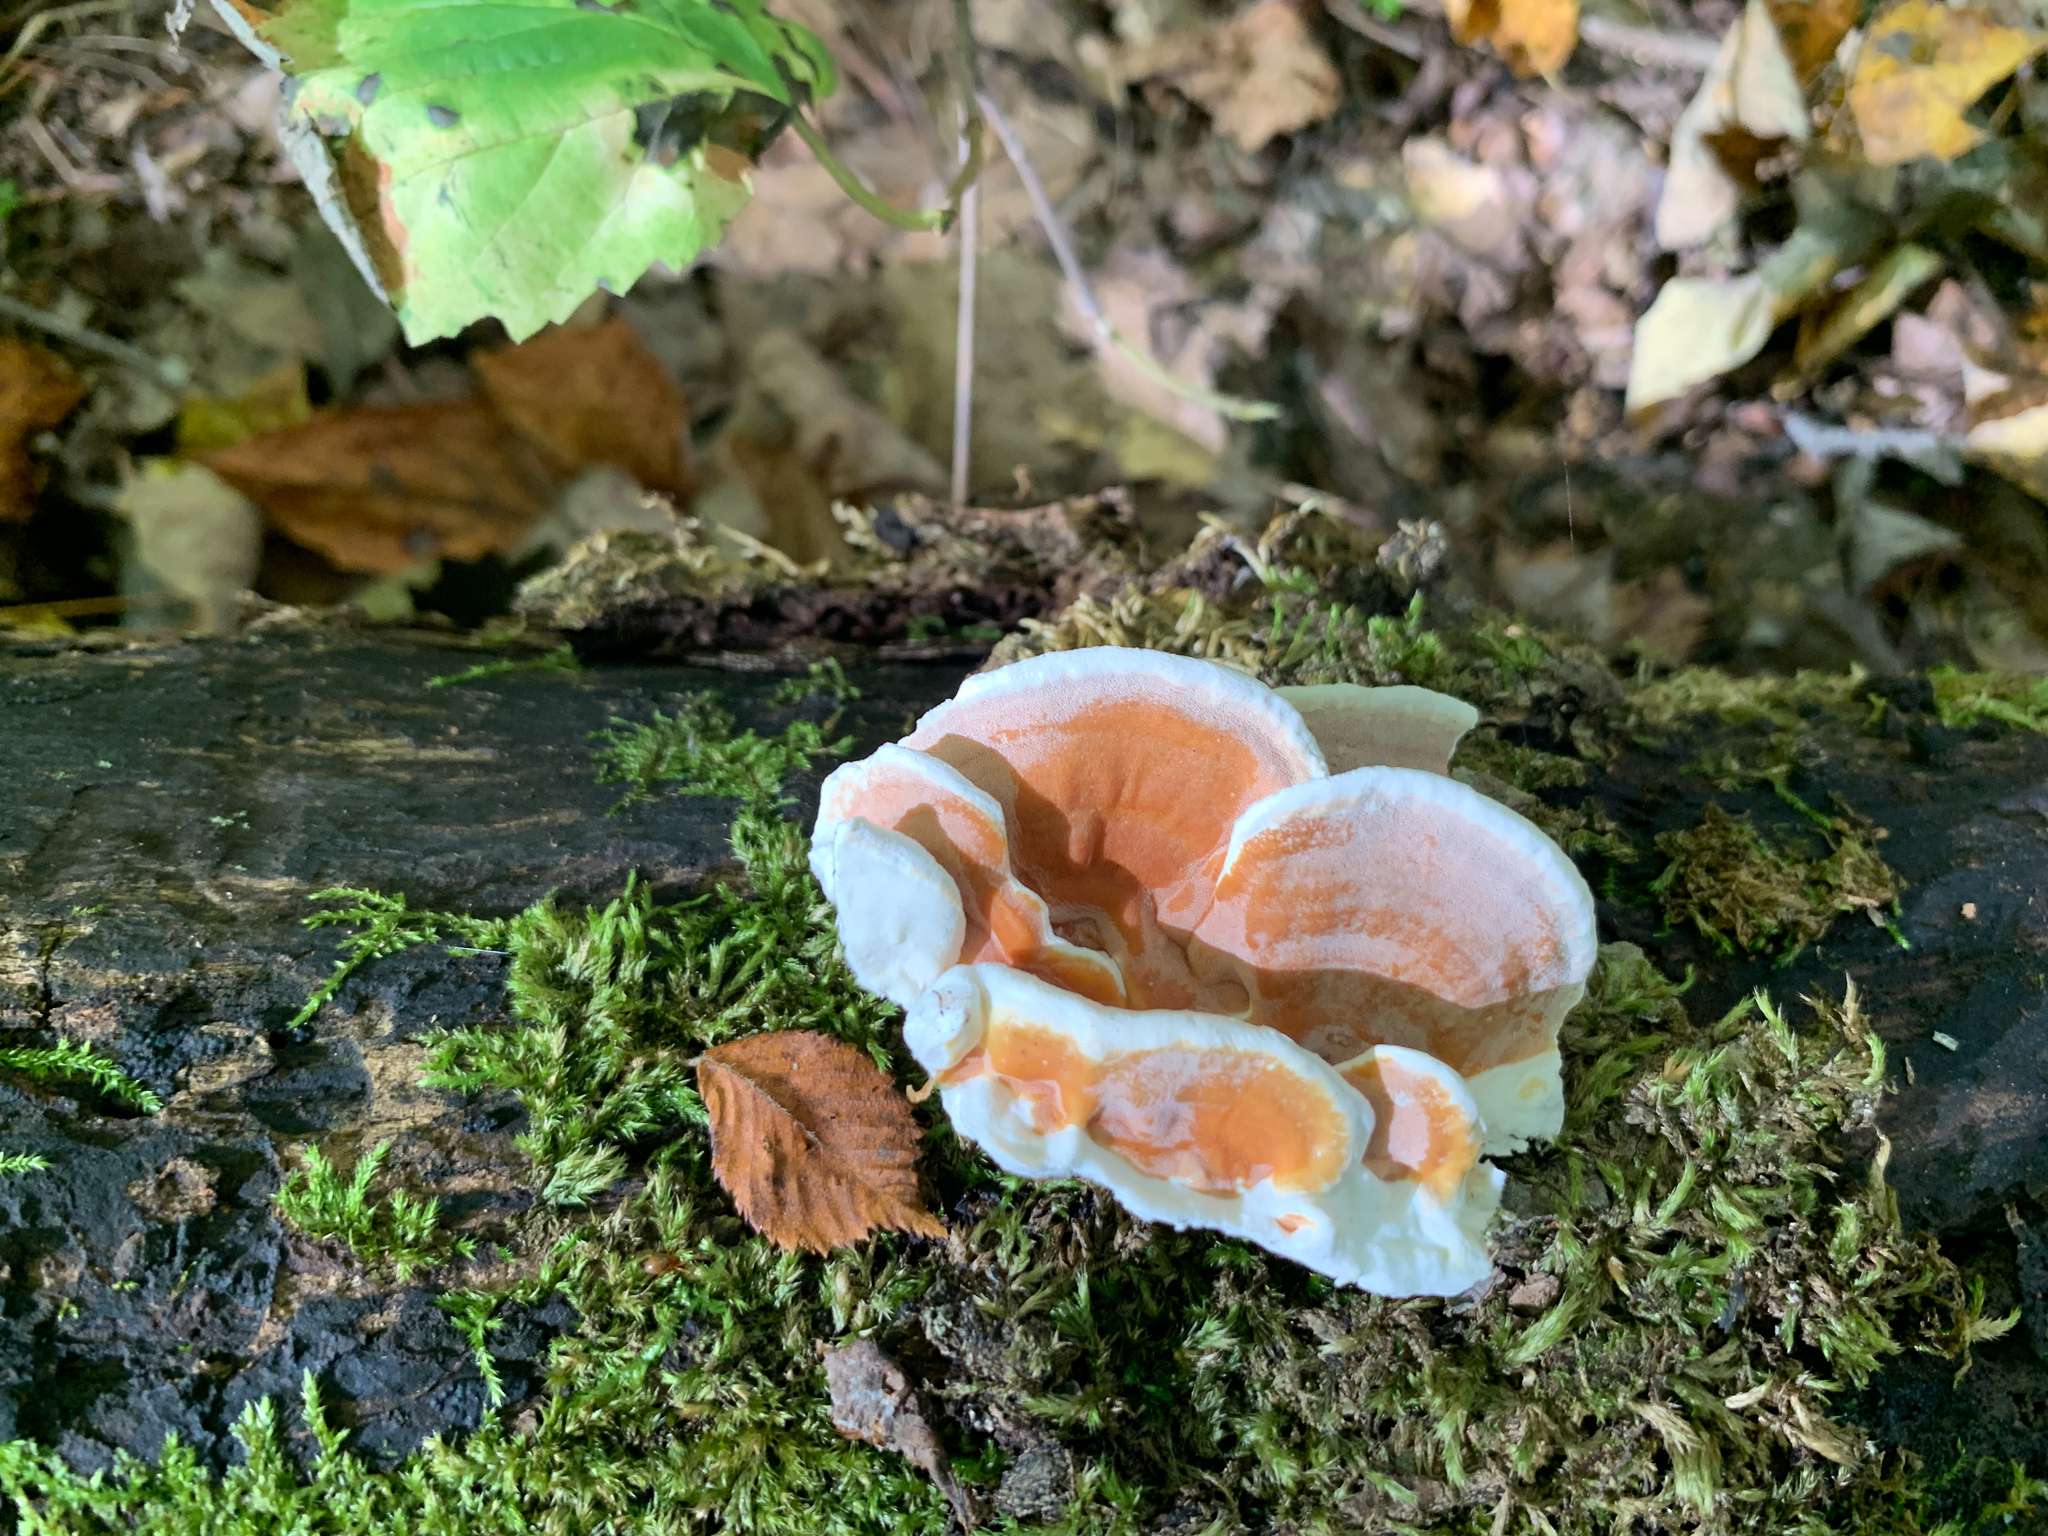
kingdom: Fungi
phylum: Basidiomycota
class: Agaricomycetes
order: Polyporales
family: Irpicaceae
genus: Vitreoporus
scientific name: Vitreoporus dichrous
